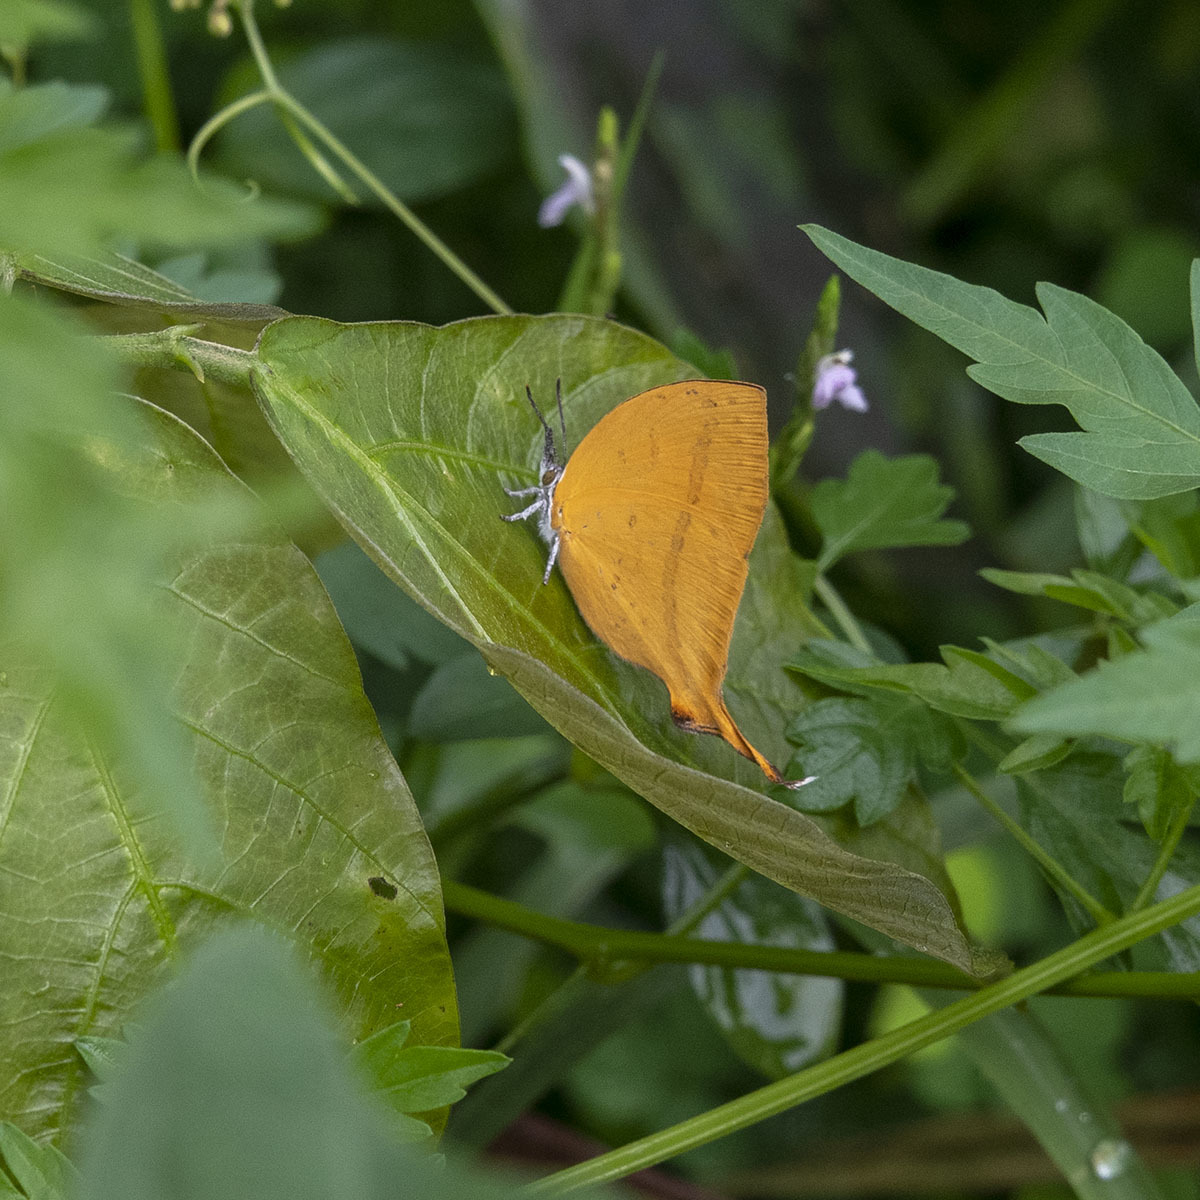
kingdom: Animalia
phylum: Arthropoda
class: Insecta
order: Lepidoptera
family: Lycaenidae
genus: Loxura
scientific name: Loxura atymnus
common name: Common yamfly
